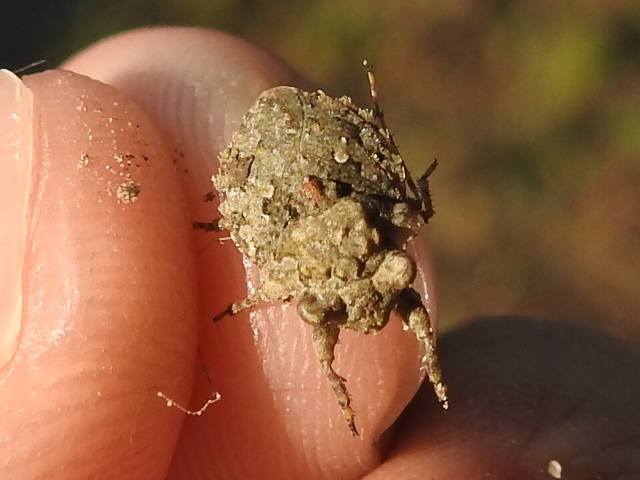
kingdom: Animalia
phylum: Arthropoda
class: Insecta
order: Hemiptera
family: Gelastocoridae
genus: Gelastocoris
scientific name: Gelastocoris oculatus
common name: Toad bug
